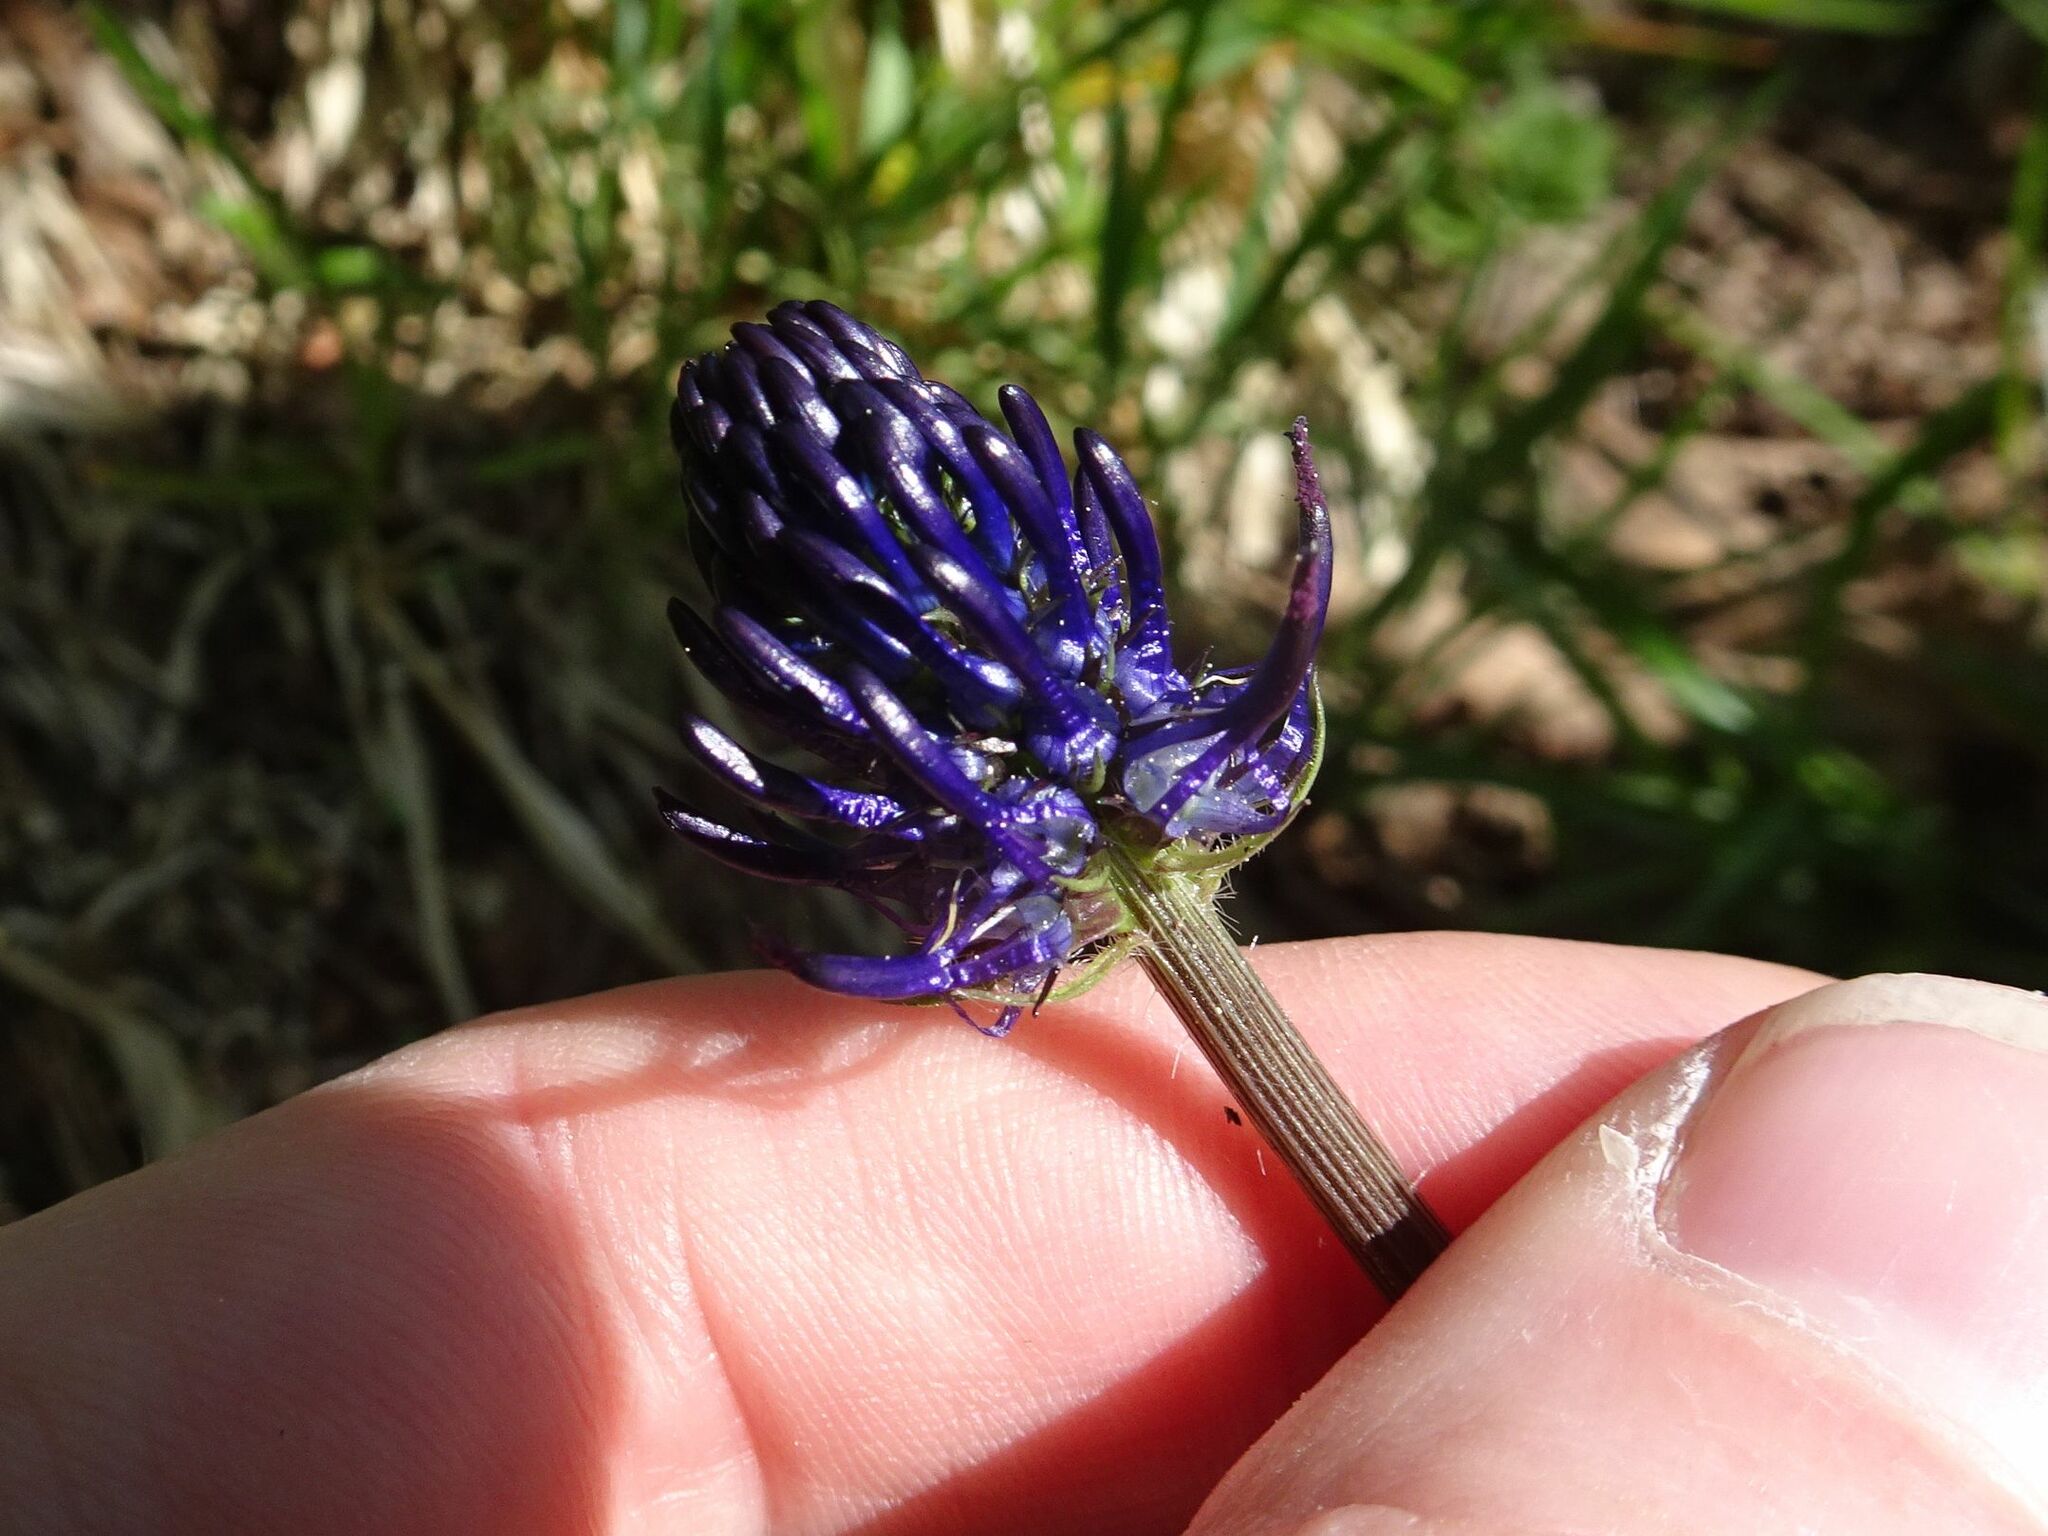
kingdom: Plantae
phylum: Tracheophyta
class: Magnoliopsida
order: Asterales
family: Campanulaceae
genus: Phyteuma
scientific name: Phyteuma nigrum
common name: Black rampion
